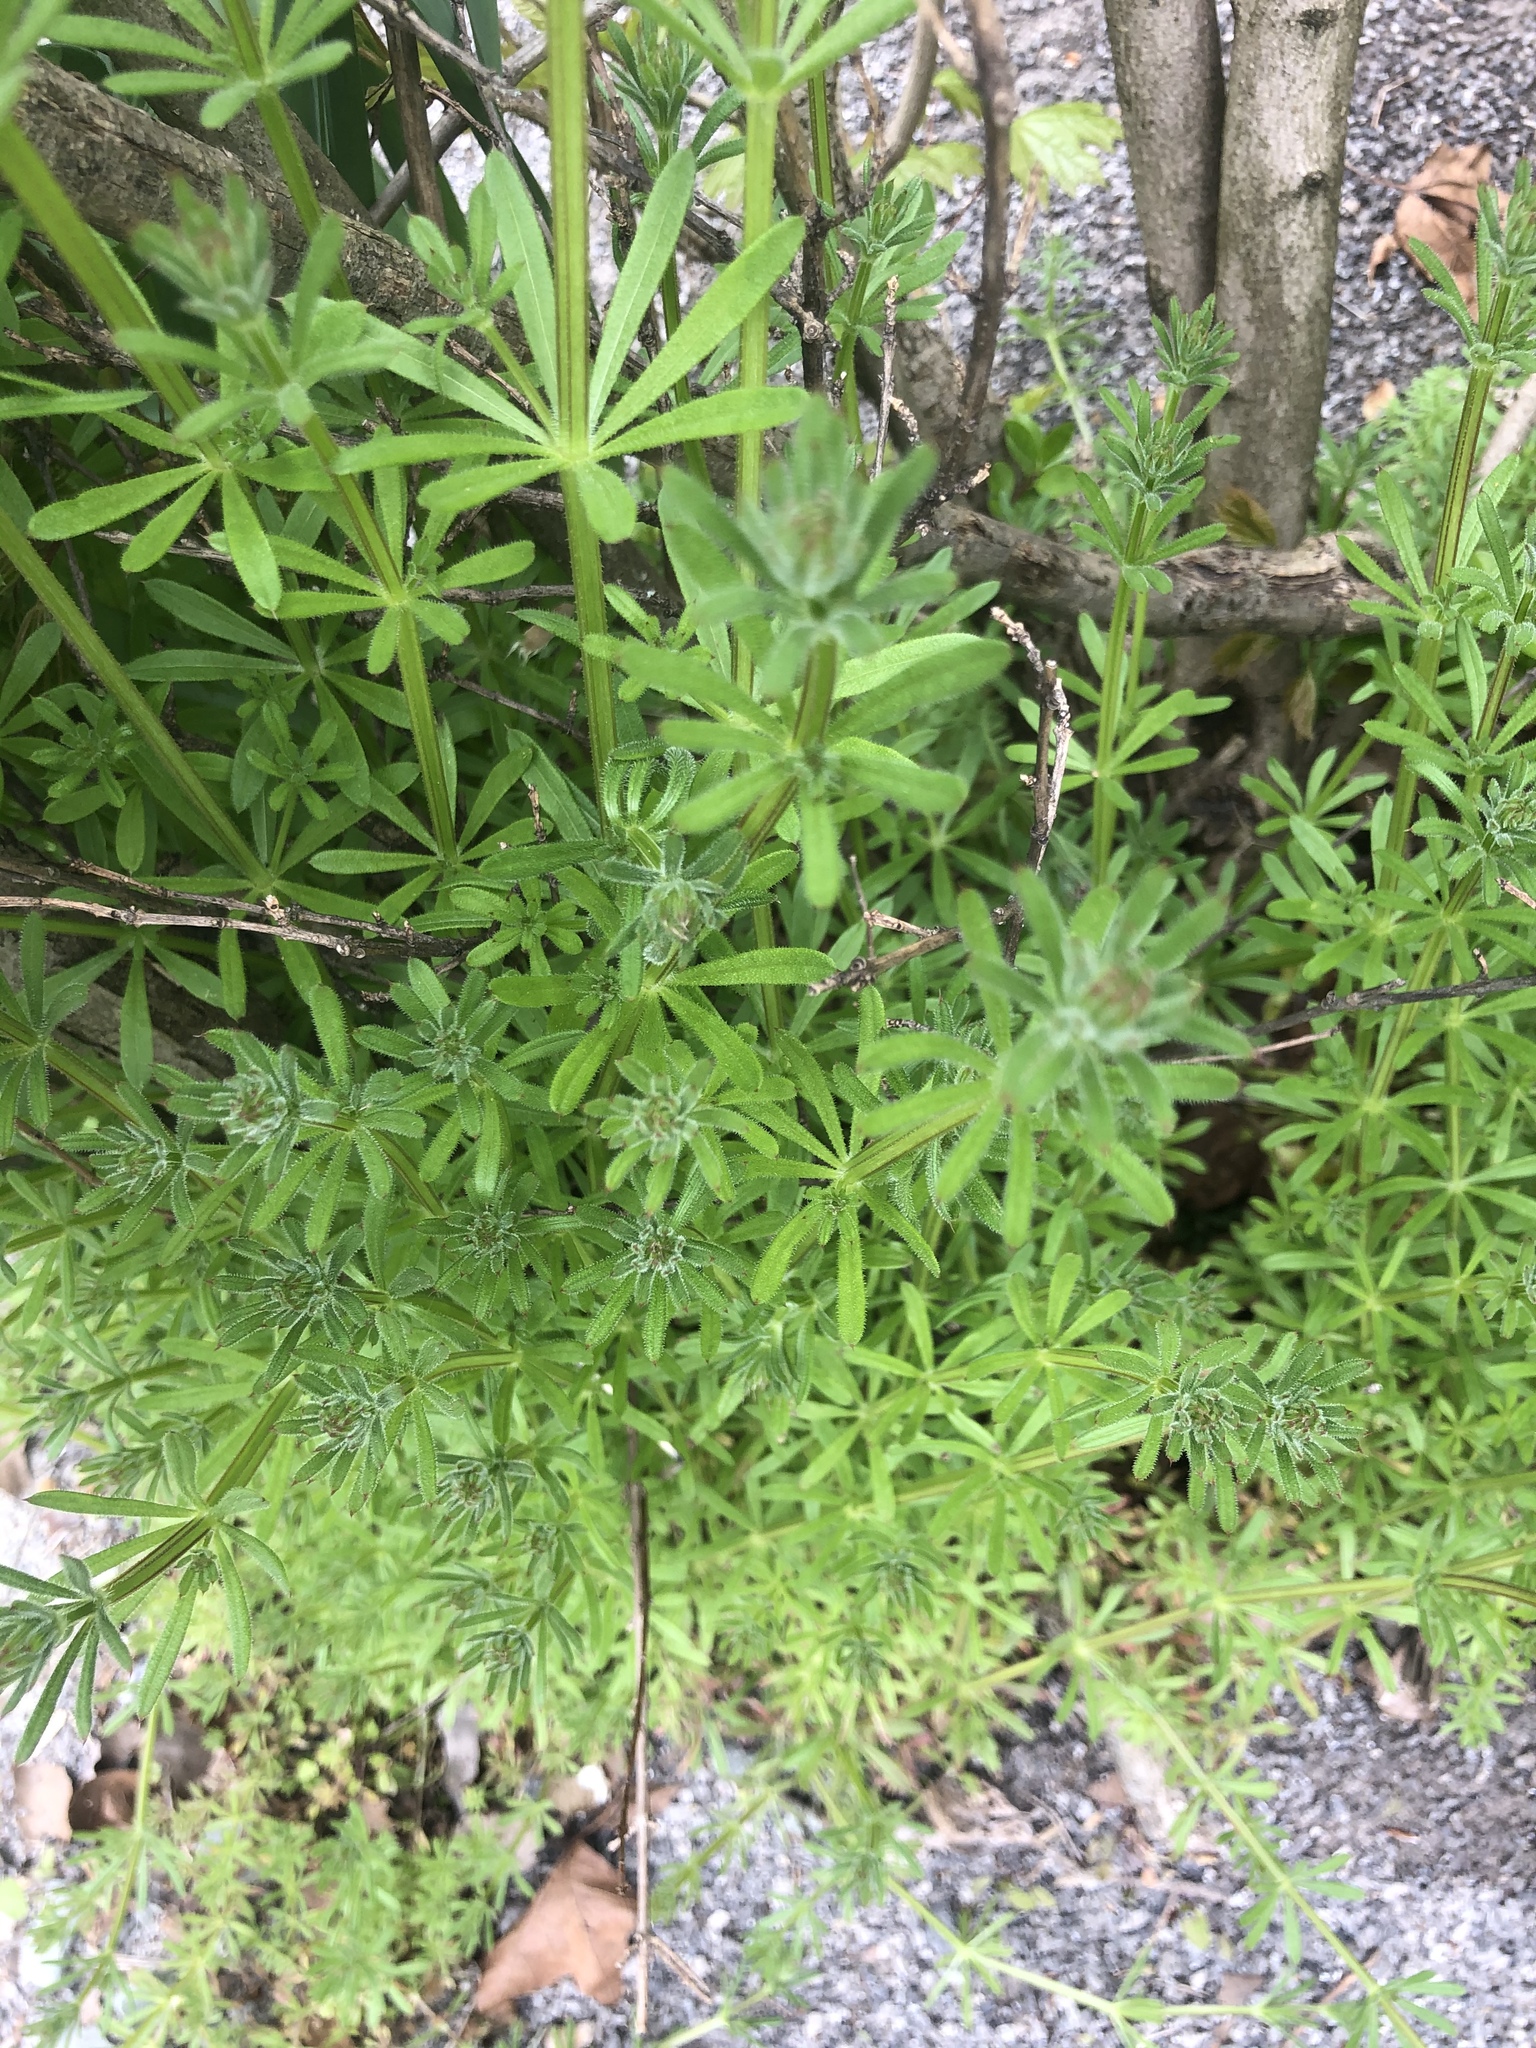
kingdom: Plantae
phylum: Tracheophyta
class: Magnoliopsida
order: Gentianales
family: Rubiaceae
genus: Galium
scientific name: Galium aparine
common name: Cleavers
